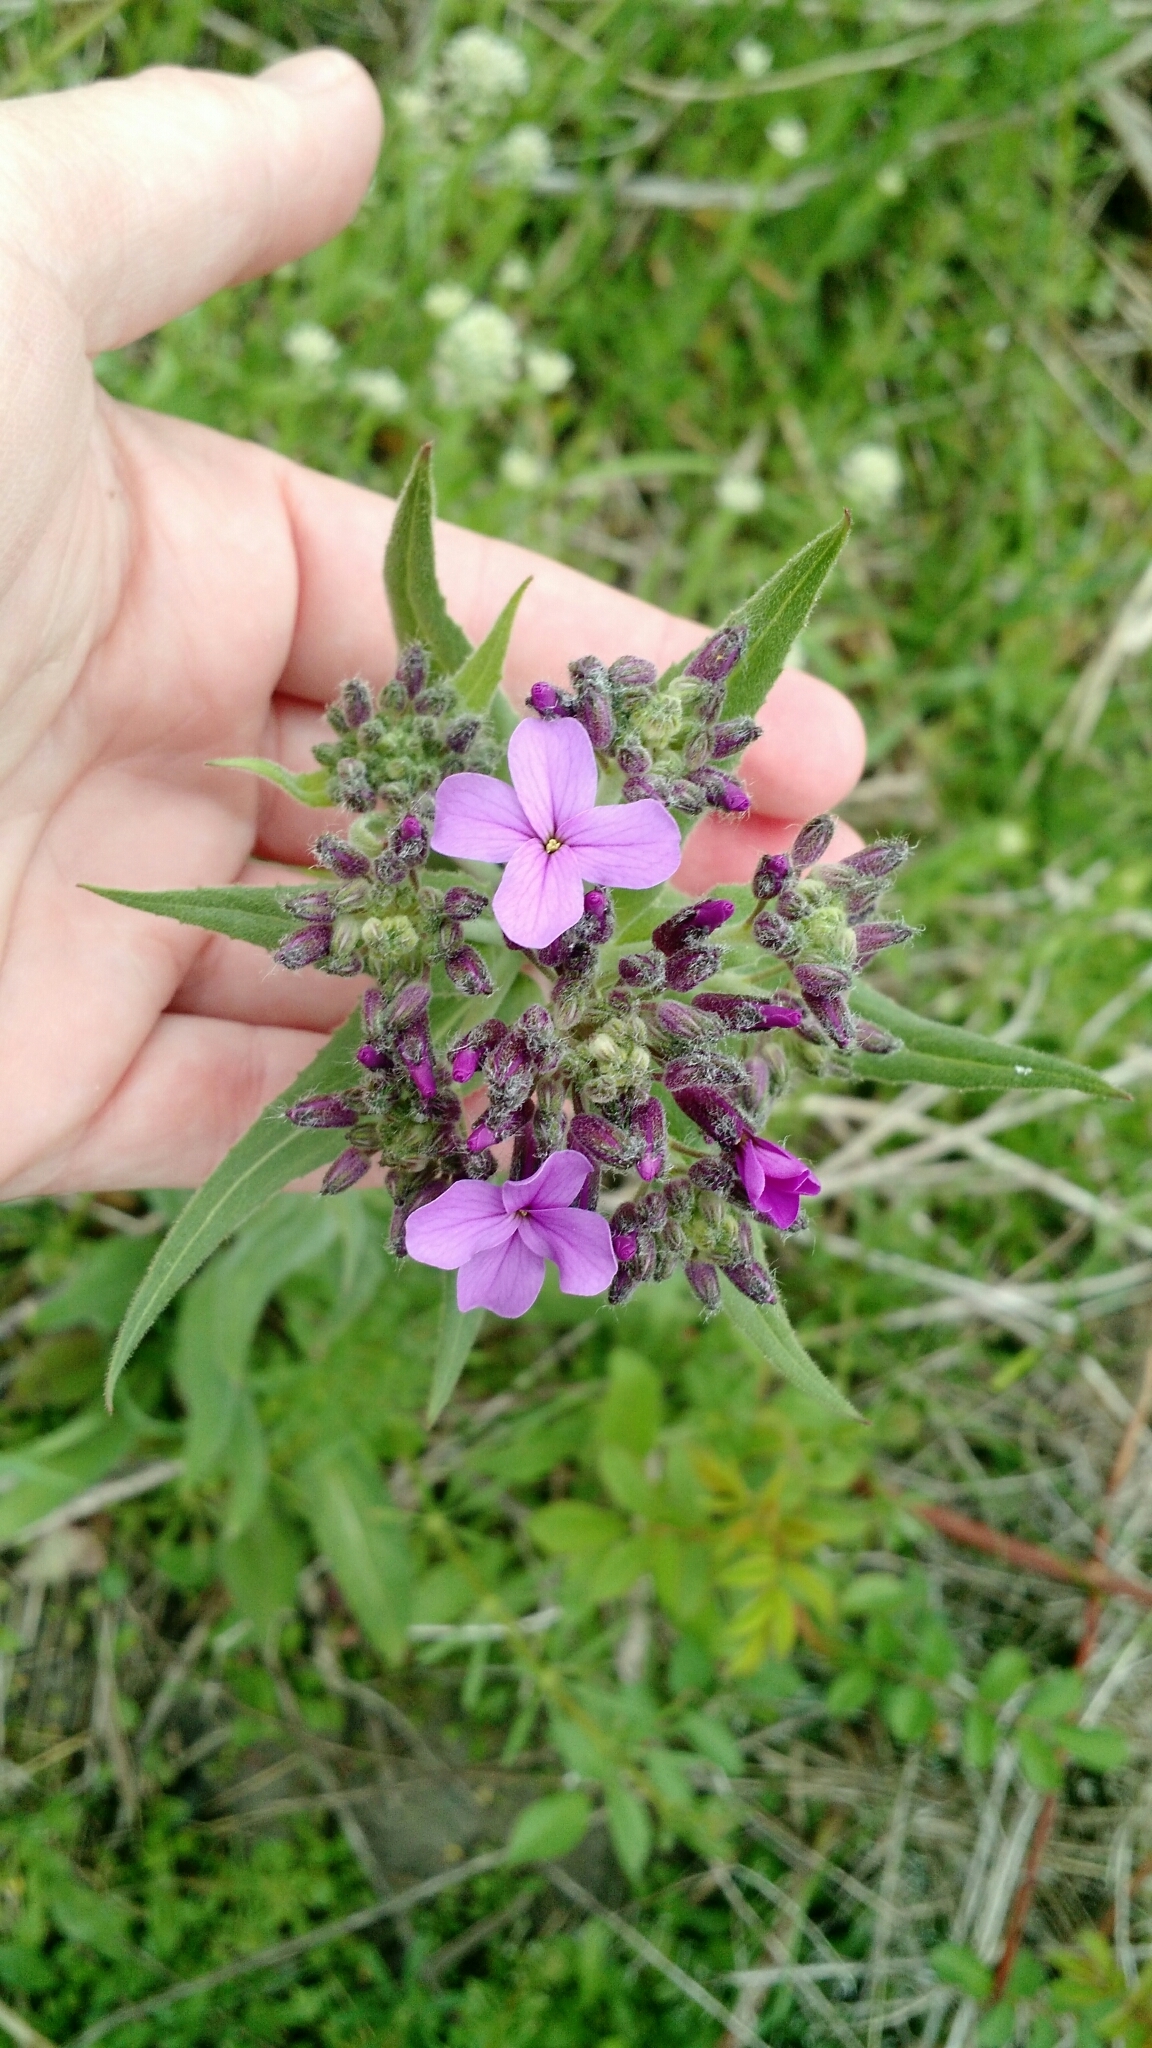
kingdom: Plantae
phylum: Tracheophyta
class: Magnoliopsida
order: Brassicales
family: Brassicaceae
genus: Hesperis
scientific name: Hesperis matronalis
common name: Dame's-violet
